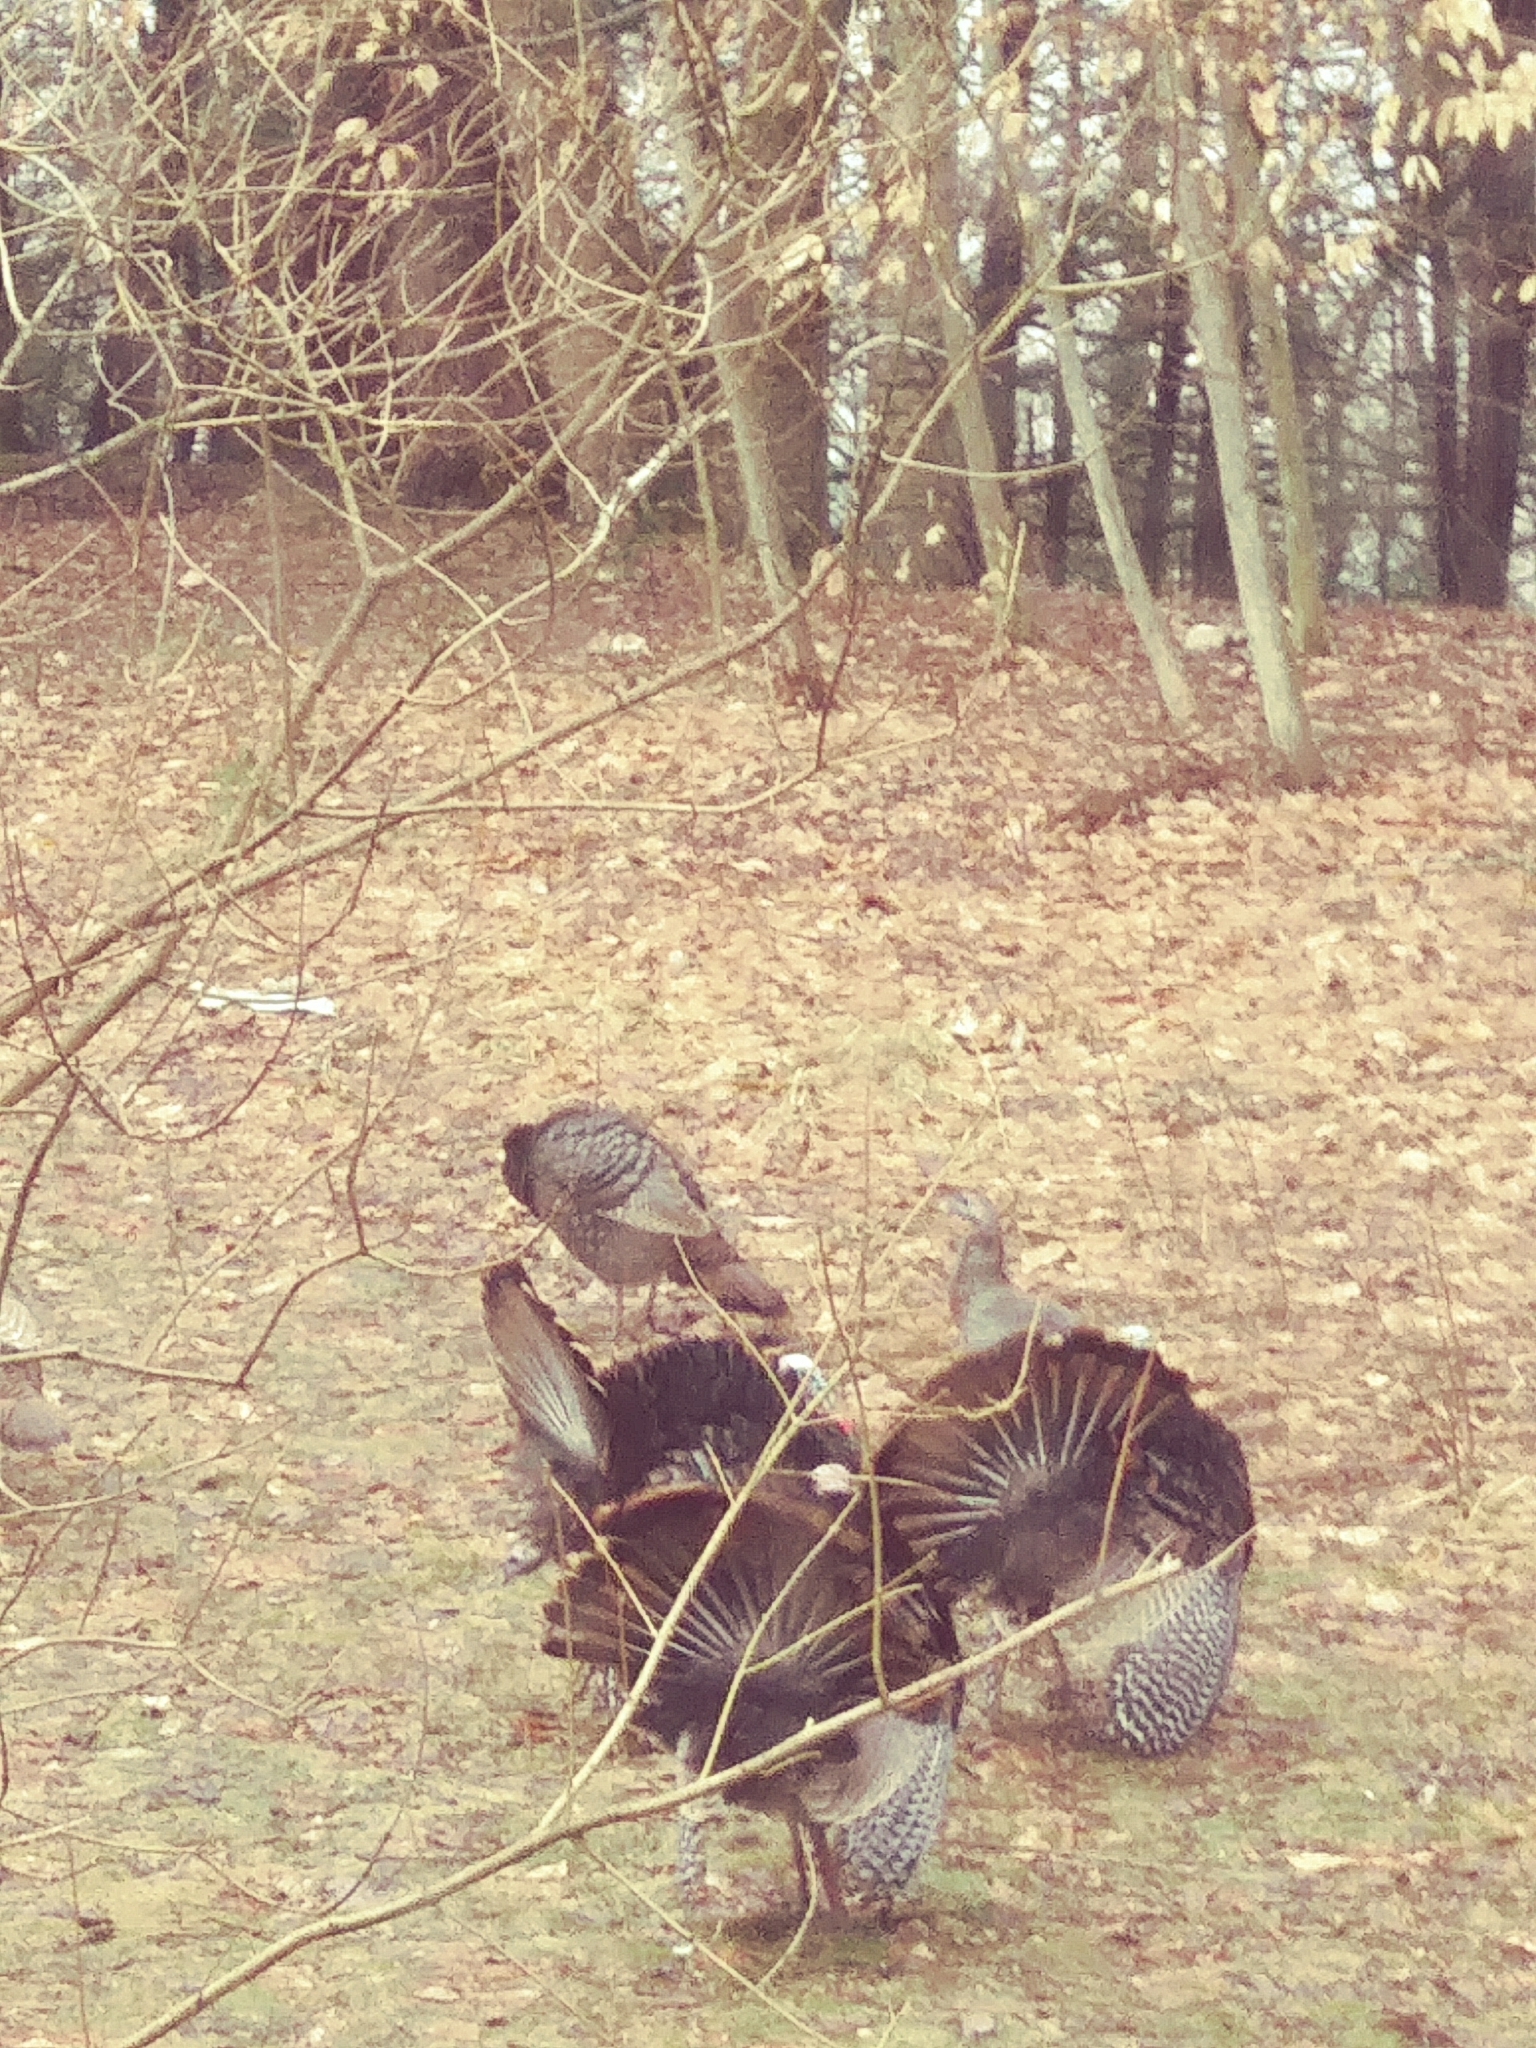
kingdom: Animalia
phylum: Chordata
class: Aves
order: Galliformes
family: Phasianidae
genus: Meleagris
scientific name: Meleagris gallopavo
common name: Wild turkey
